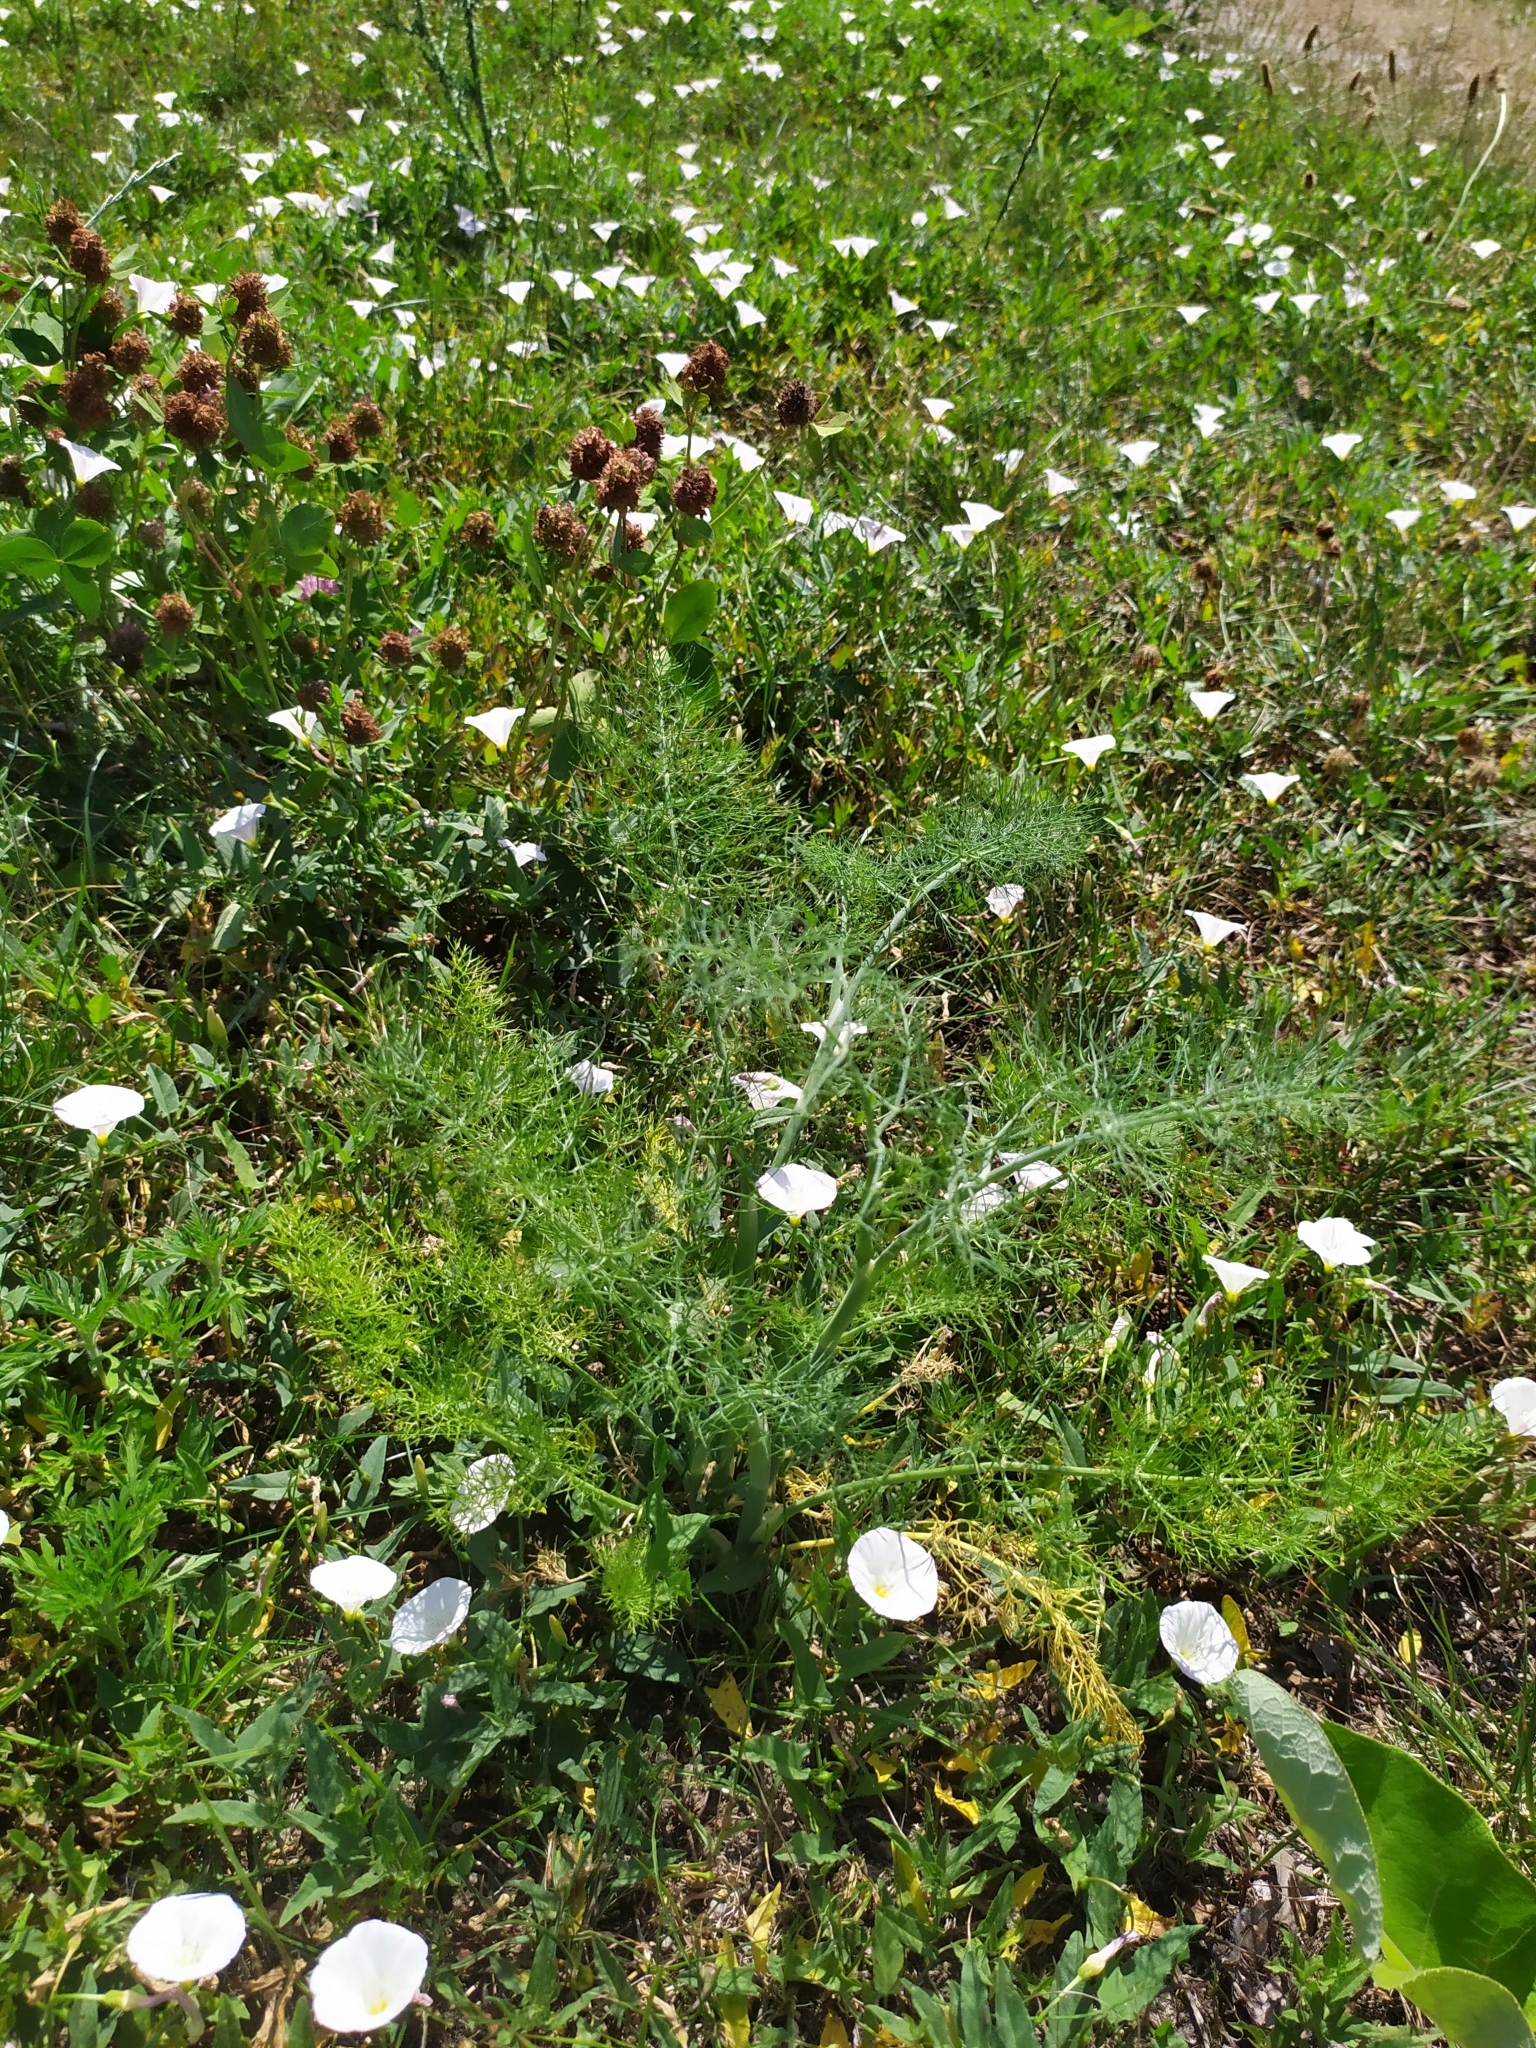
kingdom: Plantae
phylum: Tracheophyta
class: Magnoliopsida
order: Apiales
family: Apiaceae
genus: Foeniculum
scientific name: Foeniculum vulgare
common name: Fennel
